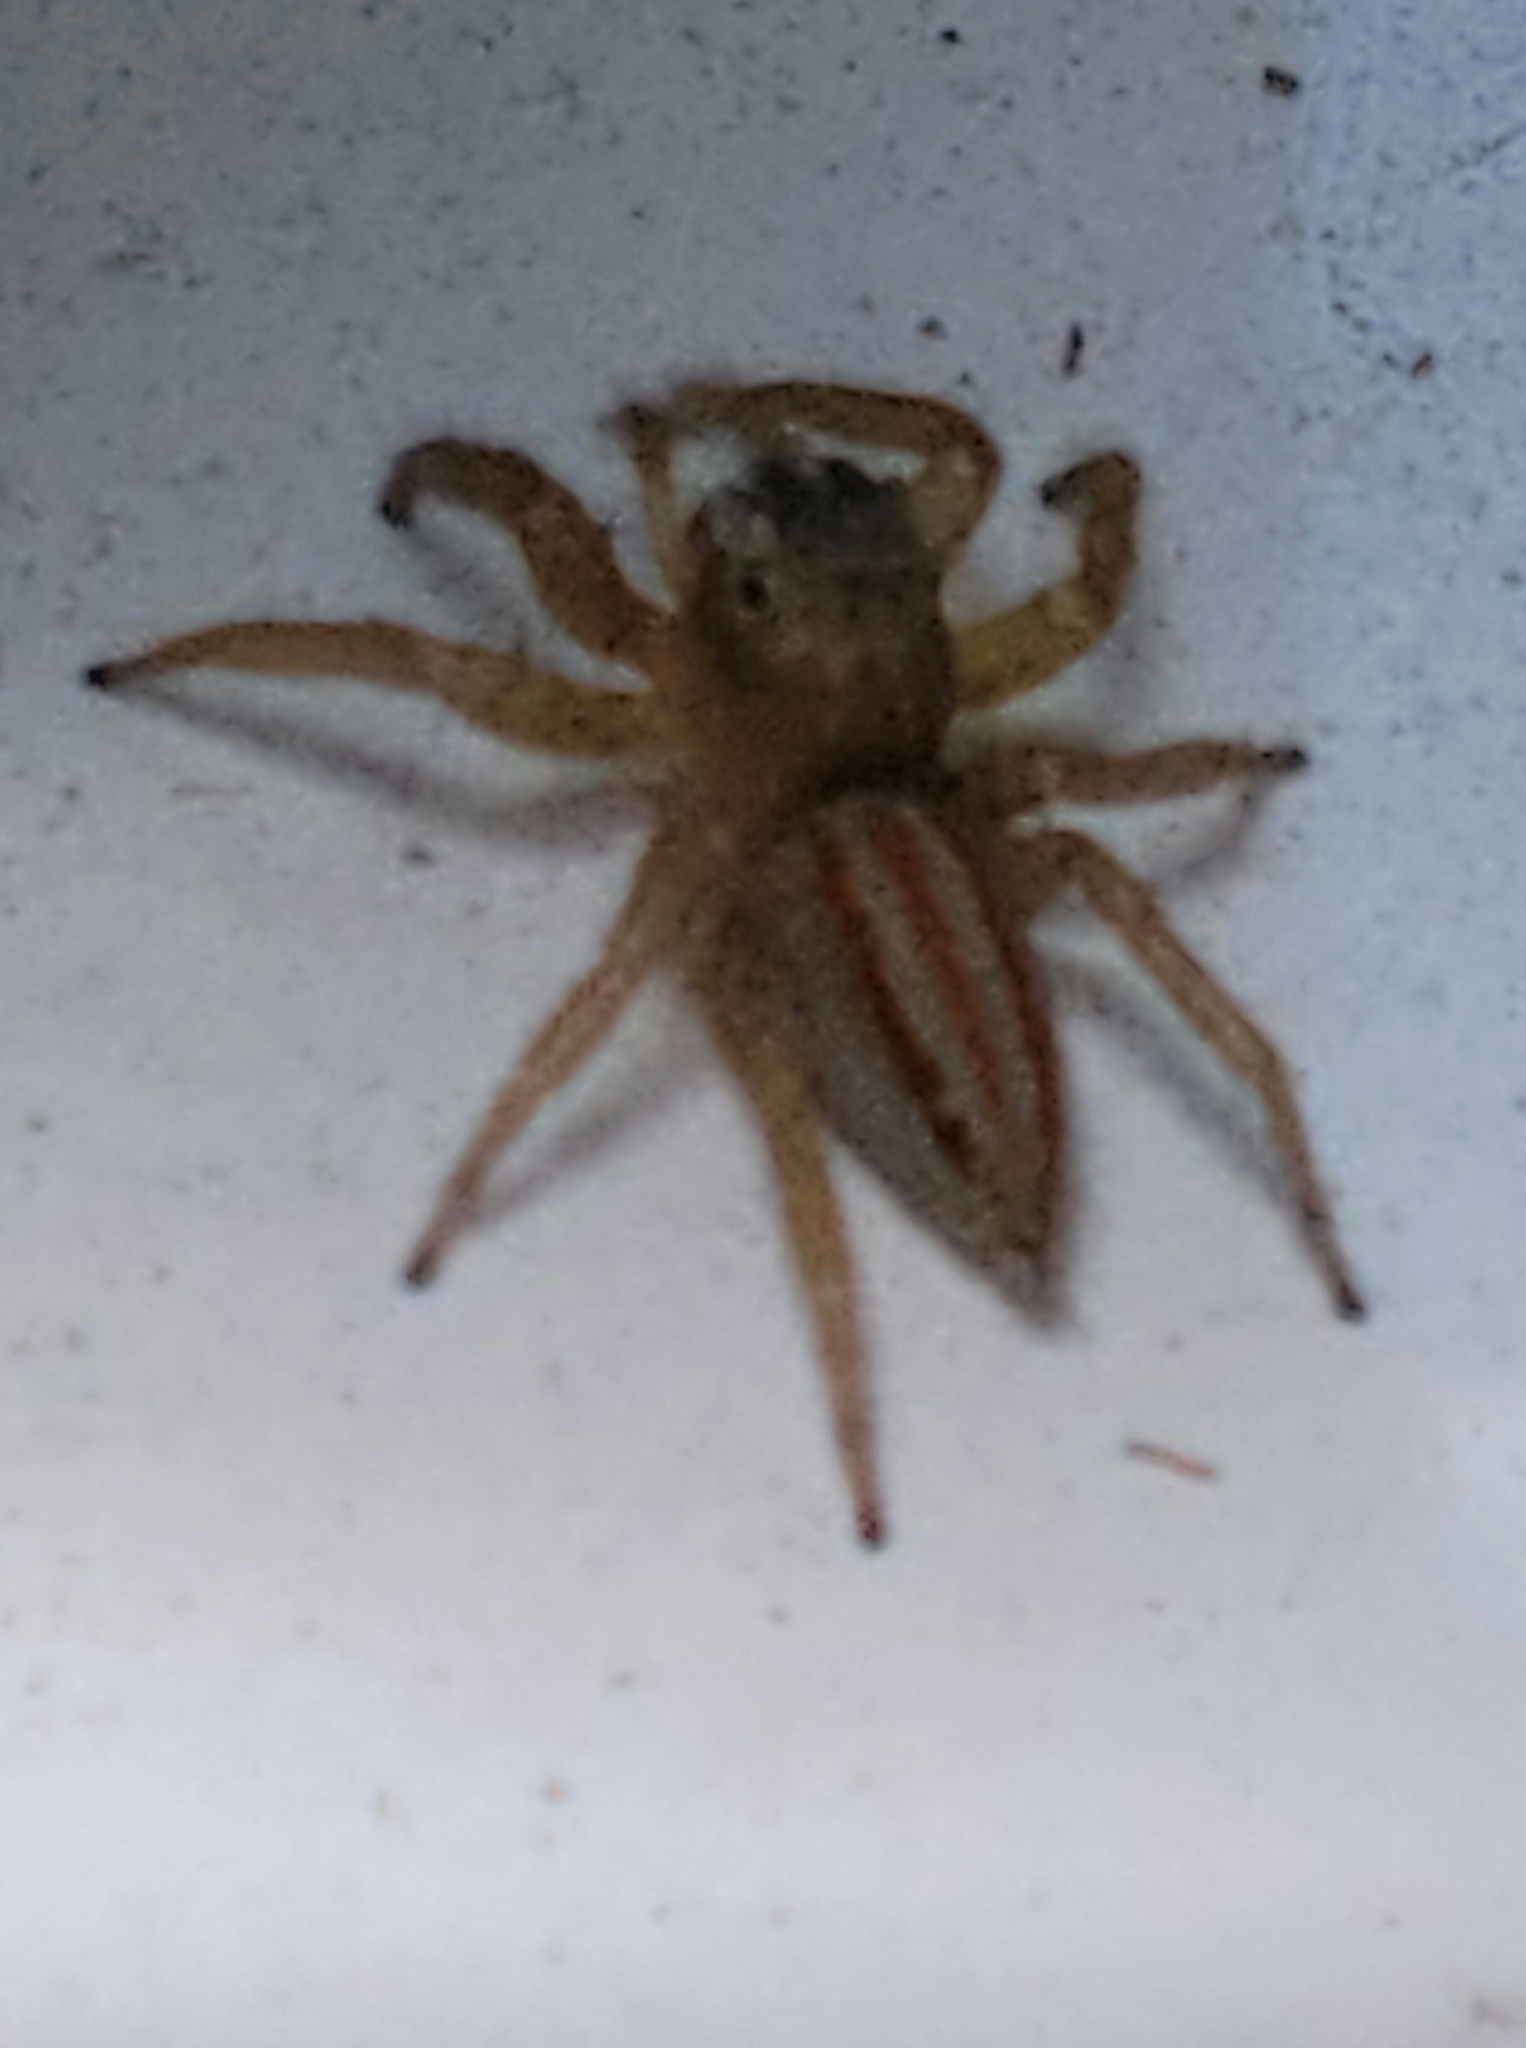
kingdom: Animalia
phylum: Arthropoda
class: Arachnida
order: Araneae
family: Salticidae
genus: Paramaevia
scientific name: Paramaevia poultoni
